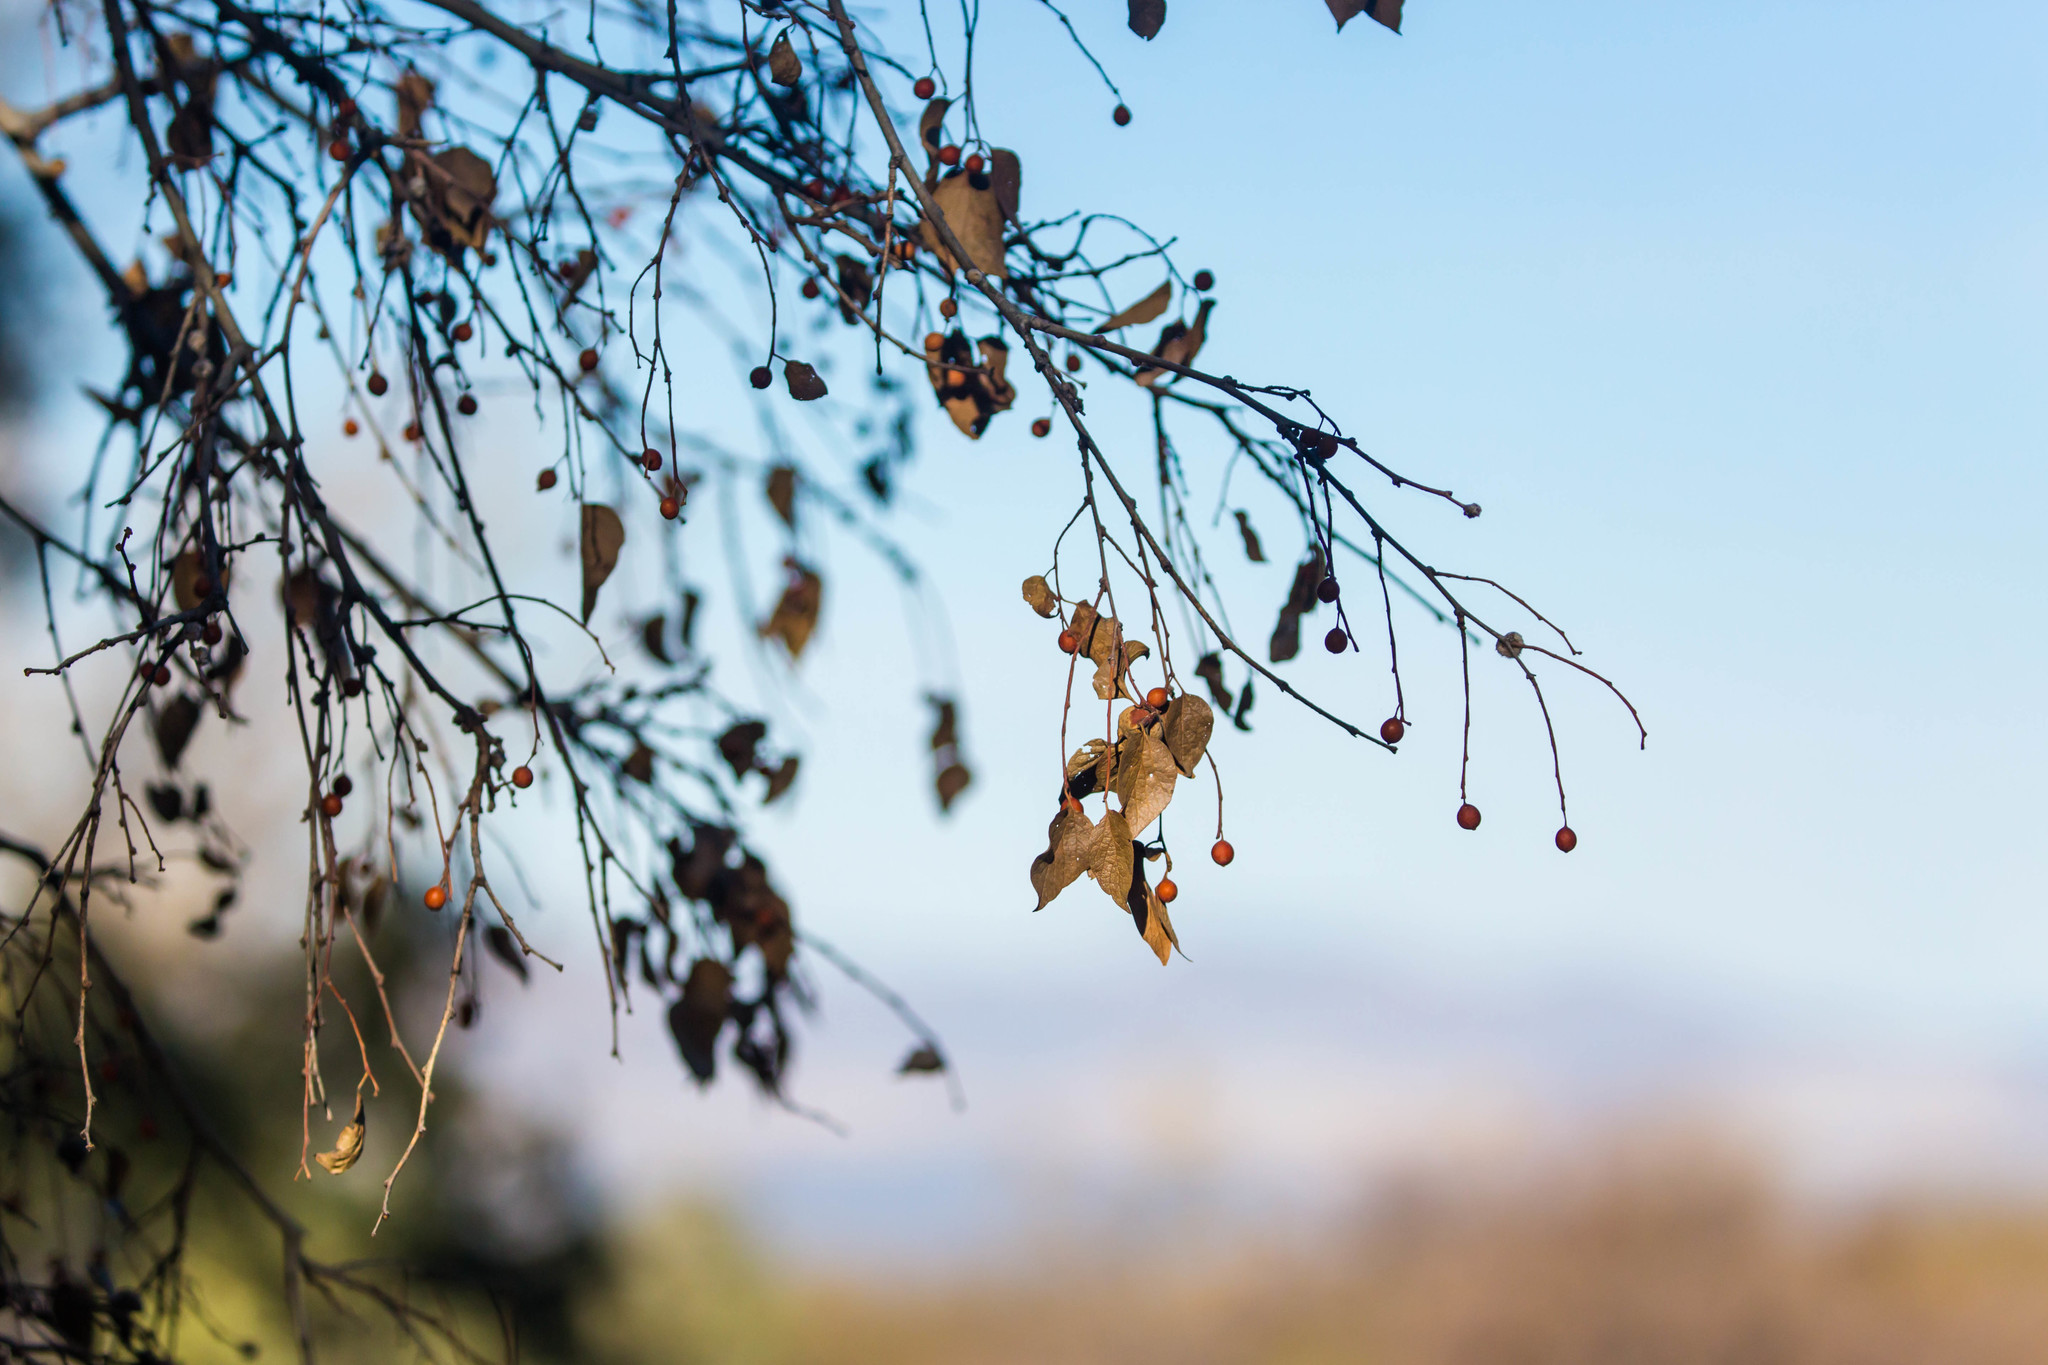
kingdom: Plantae
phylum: Tracheophyta
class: Magnoliopsida
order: Rosales
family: Cannabaceae
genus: Celtis
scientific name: Celtis reticulata
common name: Netleaf hackberry
